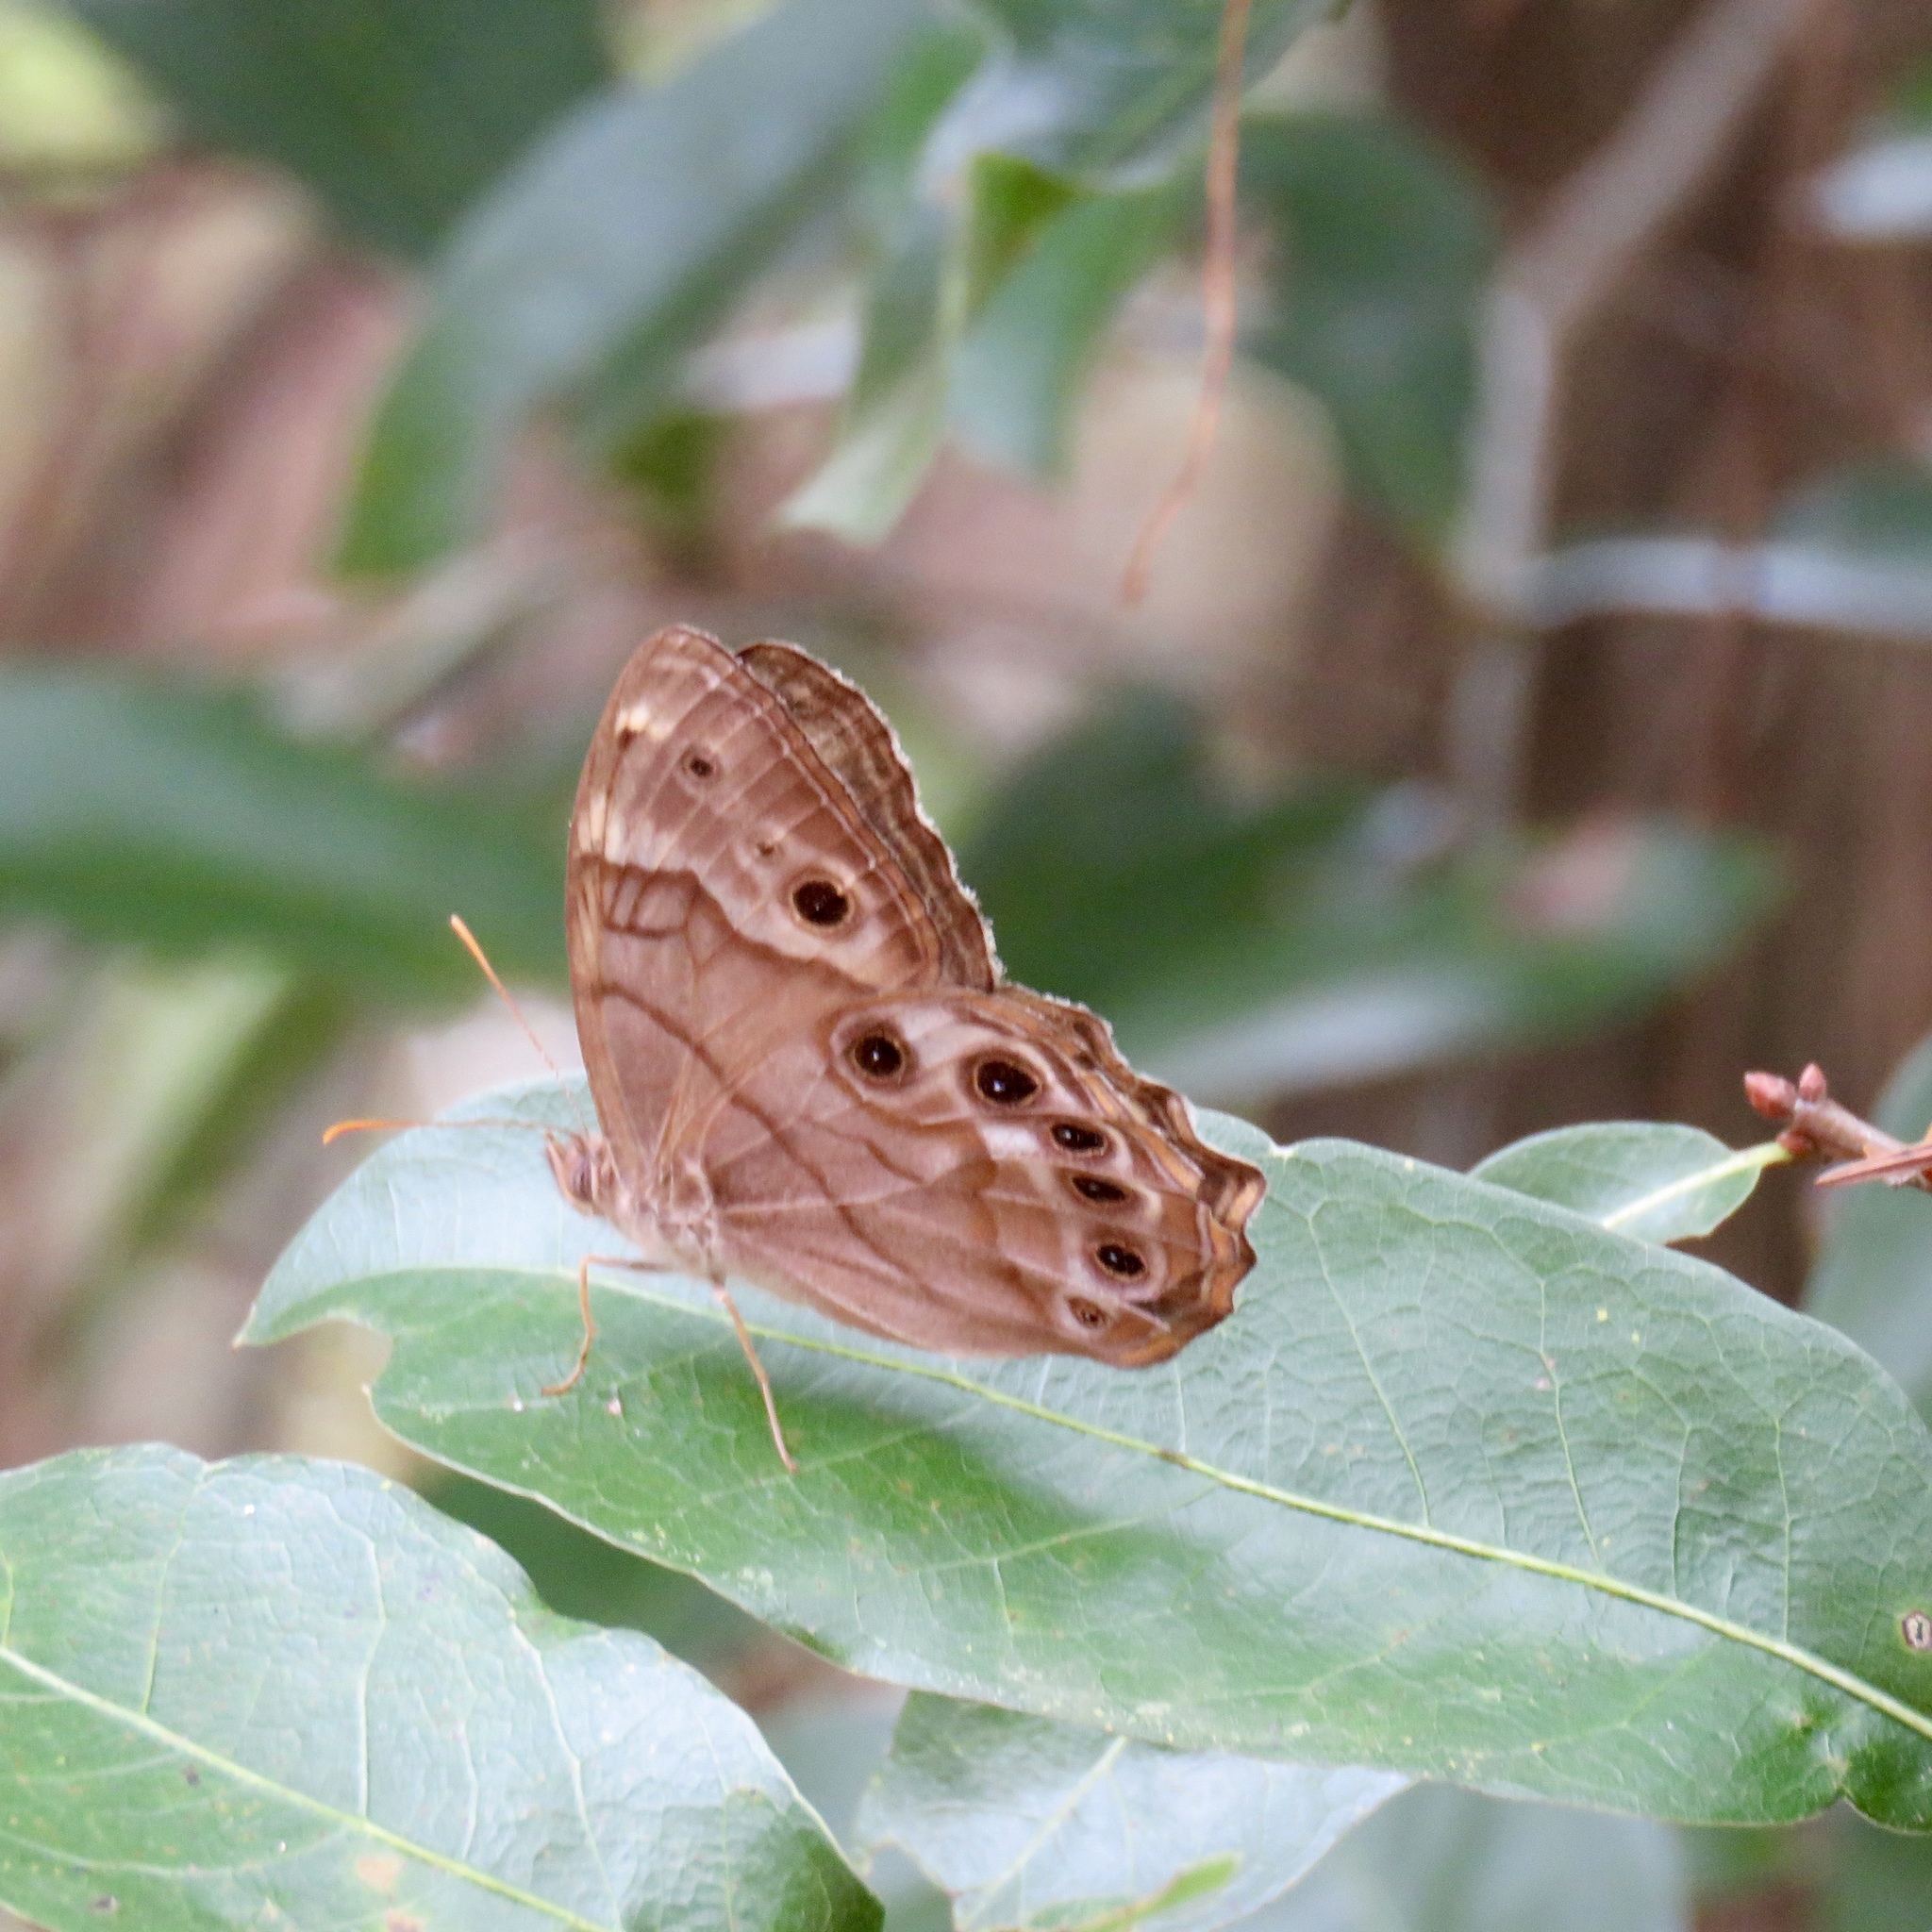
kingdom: Animalia
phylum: Arthropoda
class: Insecta
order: Lepidoptera
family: Nymphalidae
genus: Enodia
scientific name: Enodia portlandia
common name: Southern pearly-eye
